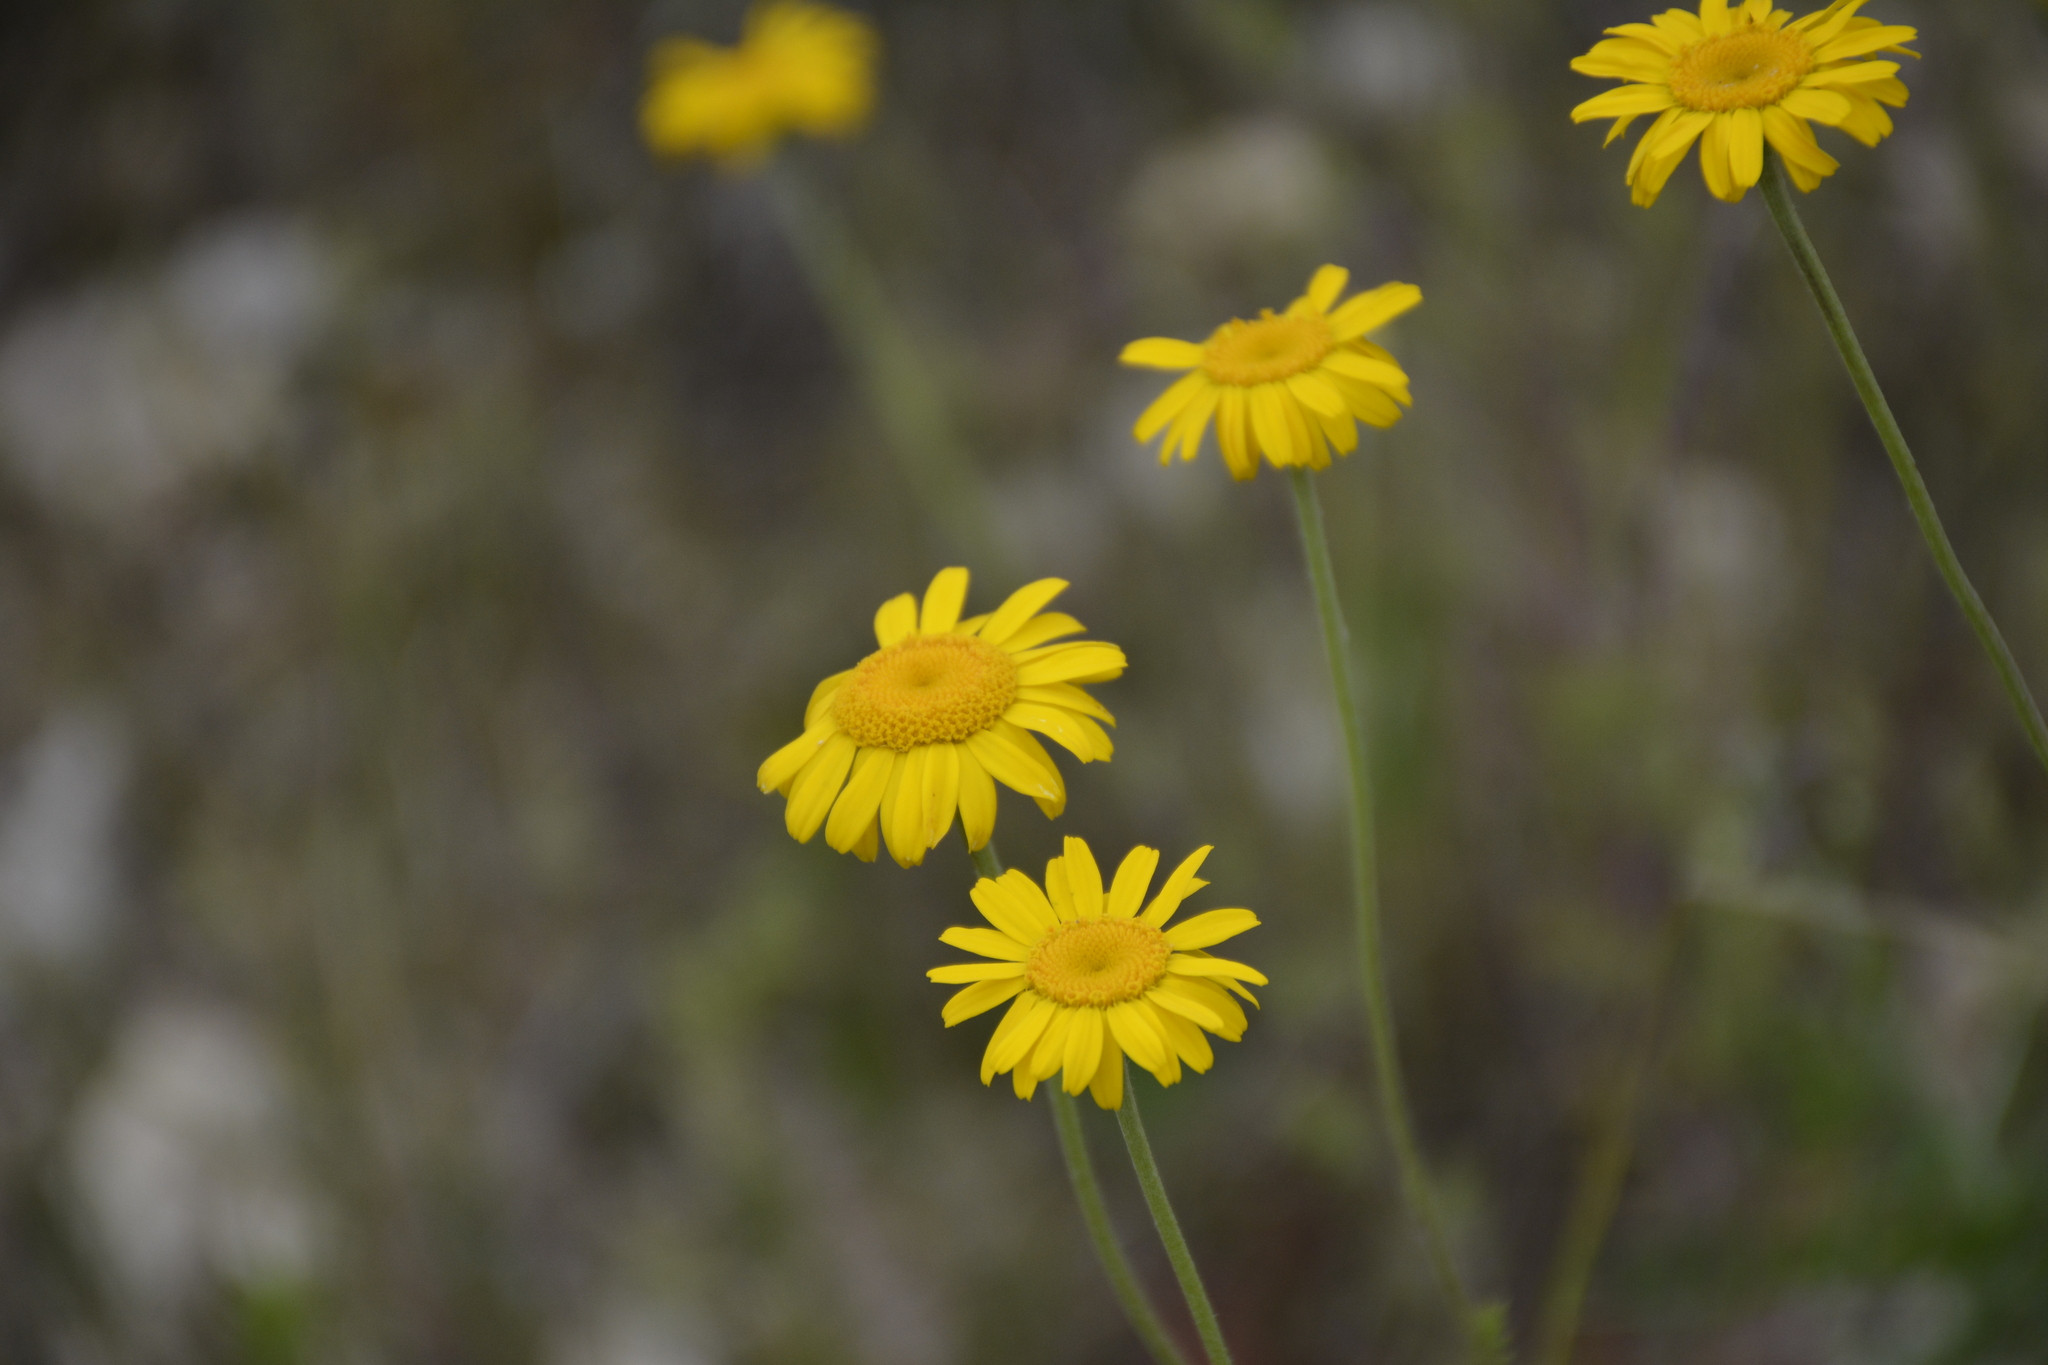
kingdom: Plantae
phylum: Tracheophyta
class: Magnoliopsida
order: Asterales
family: Asteraceae
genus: Cota
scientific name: Cota tinctoria
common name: Golden chamomile
